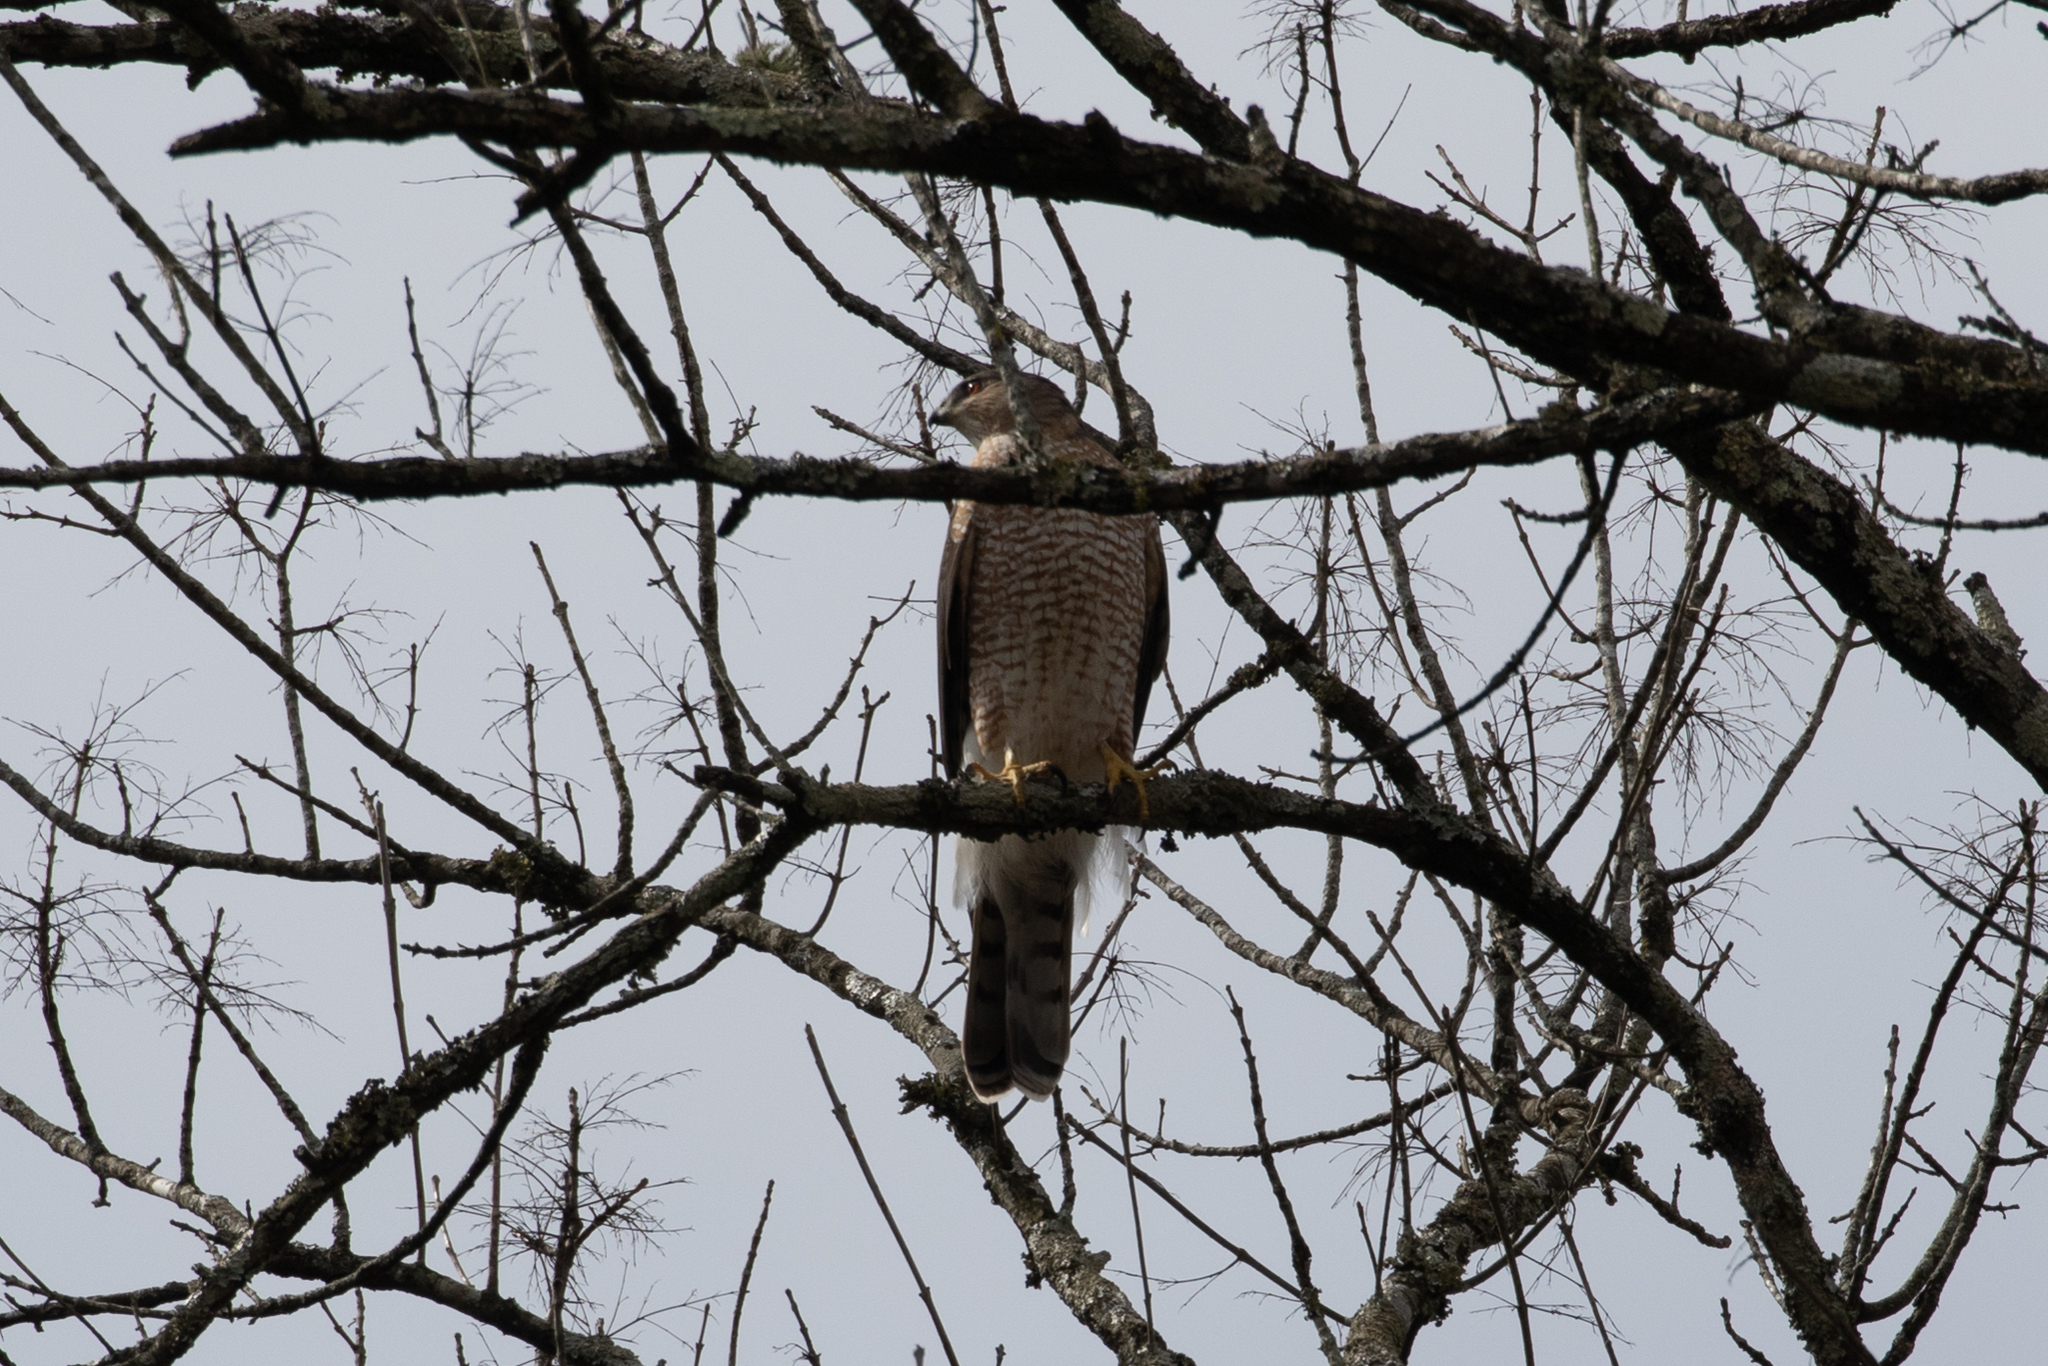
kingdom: Animalia
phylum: Chordata
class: Aves
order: Accipitriformes
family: Accipitridae
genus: Accipiter
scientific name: Accipiter cooperii
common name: Cooper's hawk
